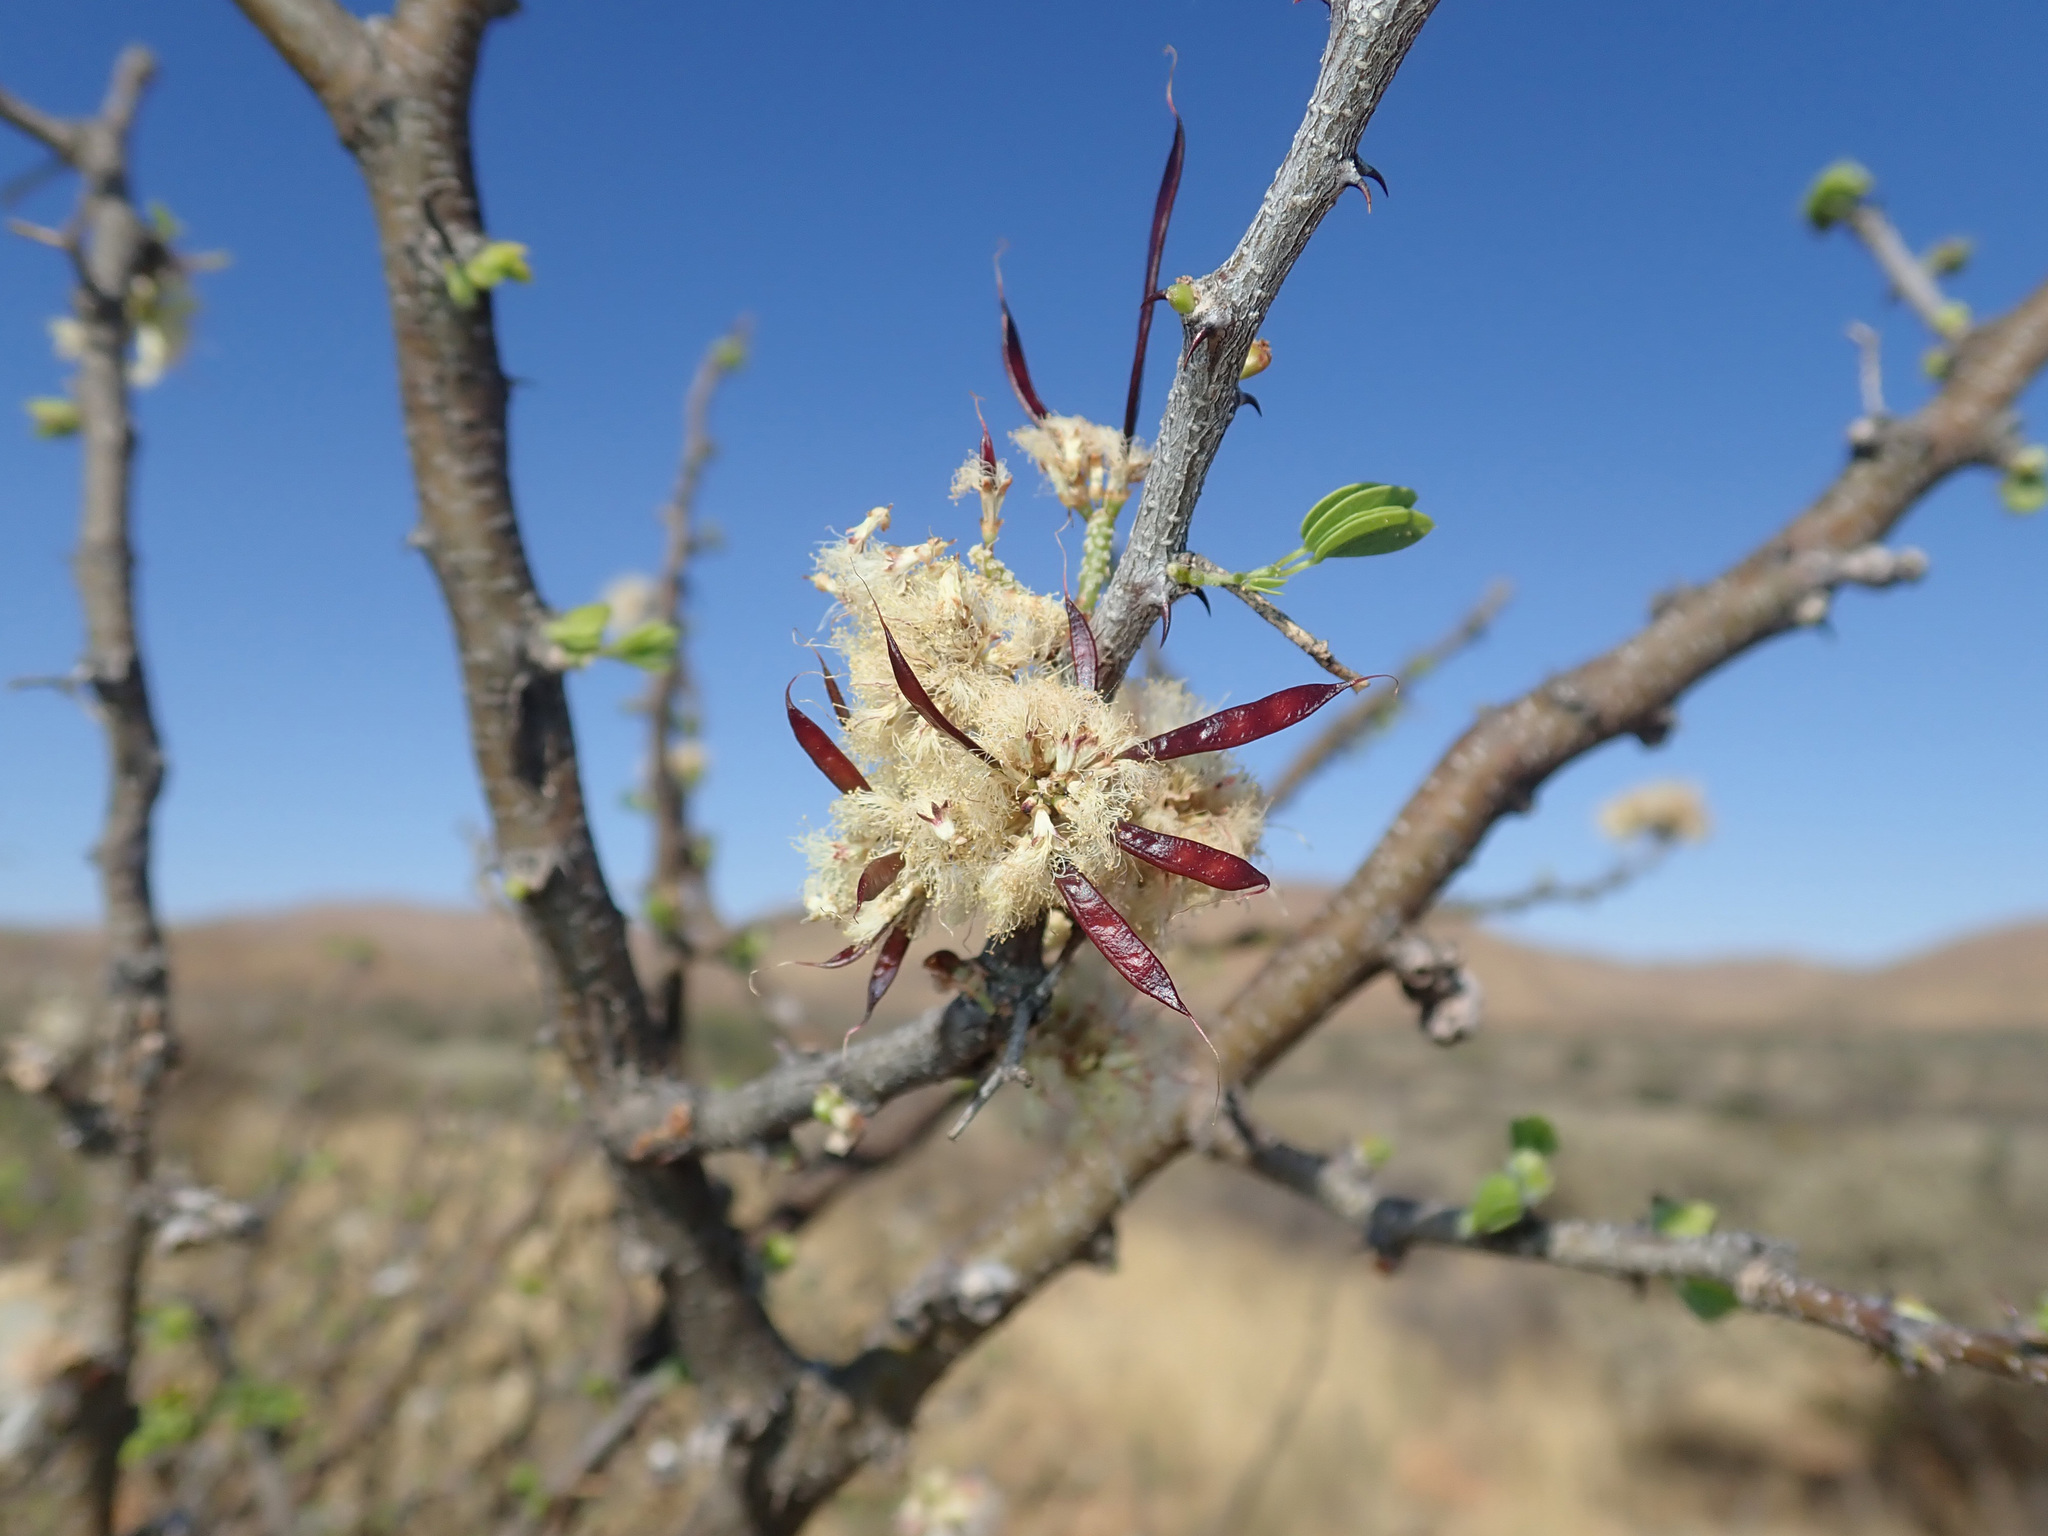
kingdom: Plantae
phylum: Tracheophyta
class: Magnoliopsida
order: Fabales
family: Fabaceae
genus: Senegalia
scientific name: Senegalia mellifera
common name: Hookthorn
